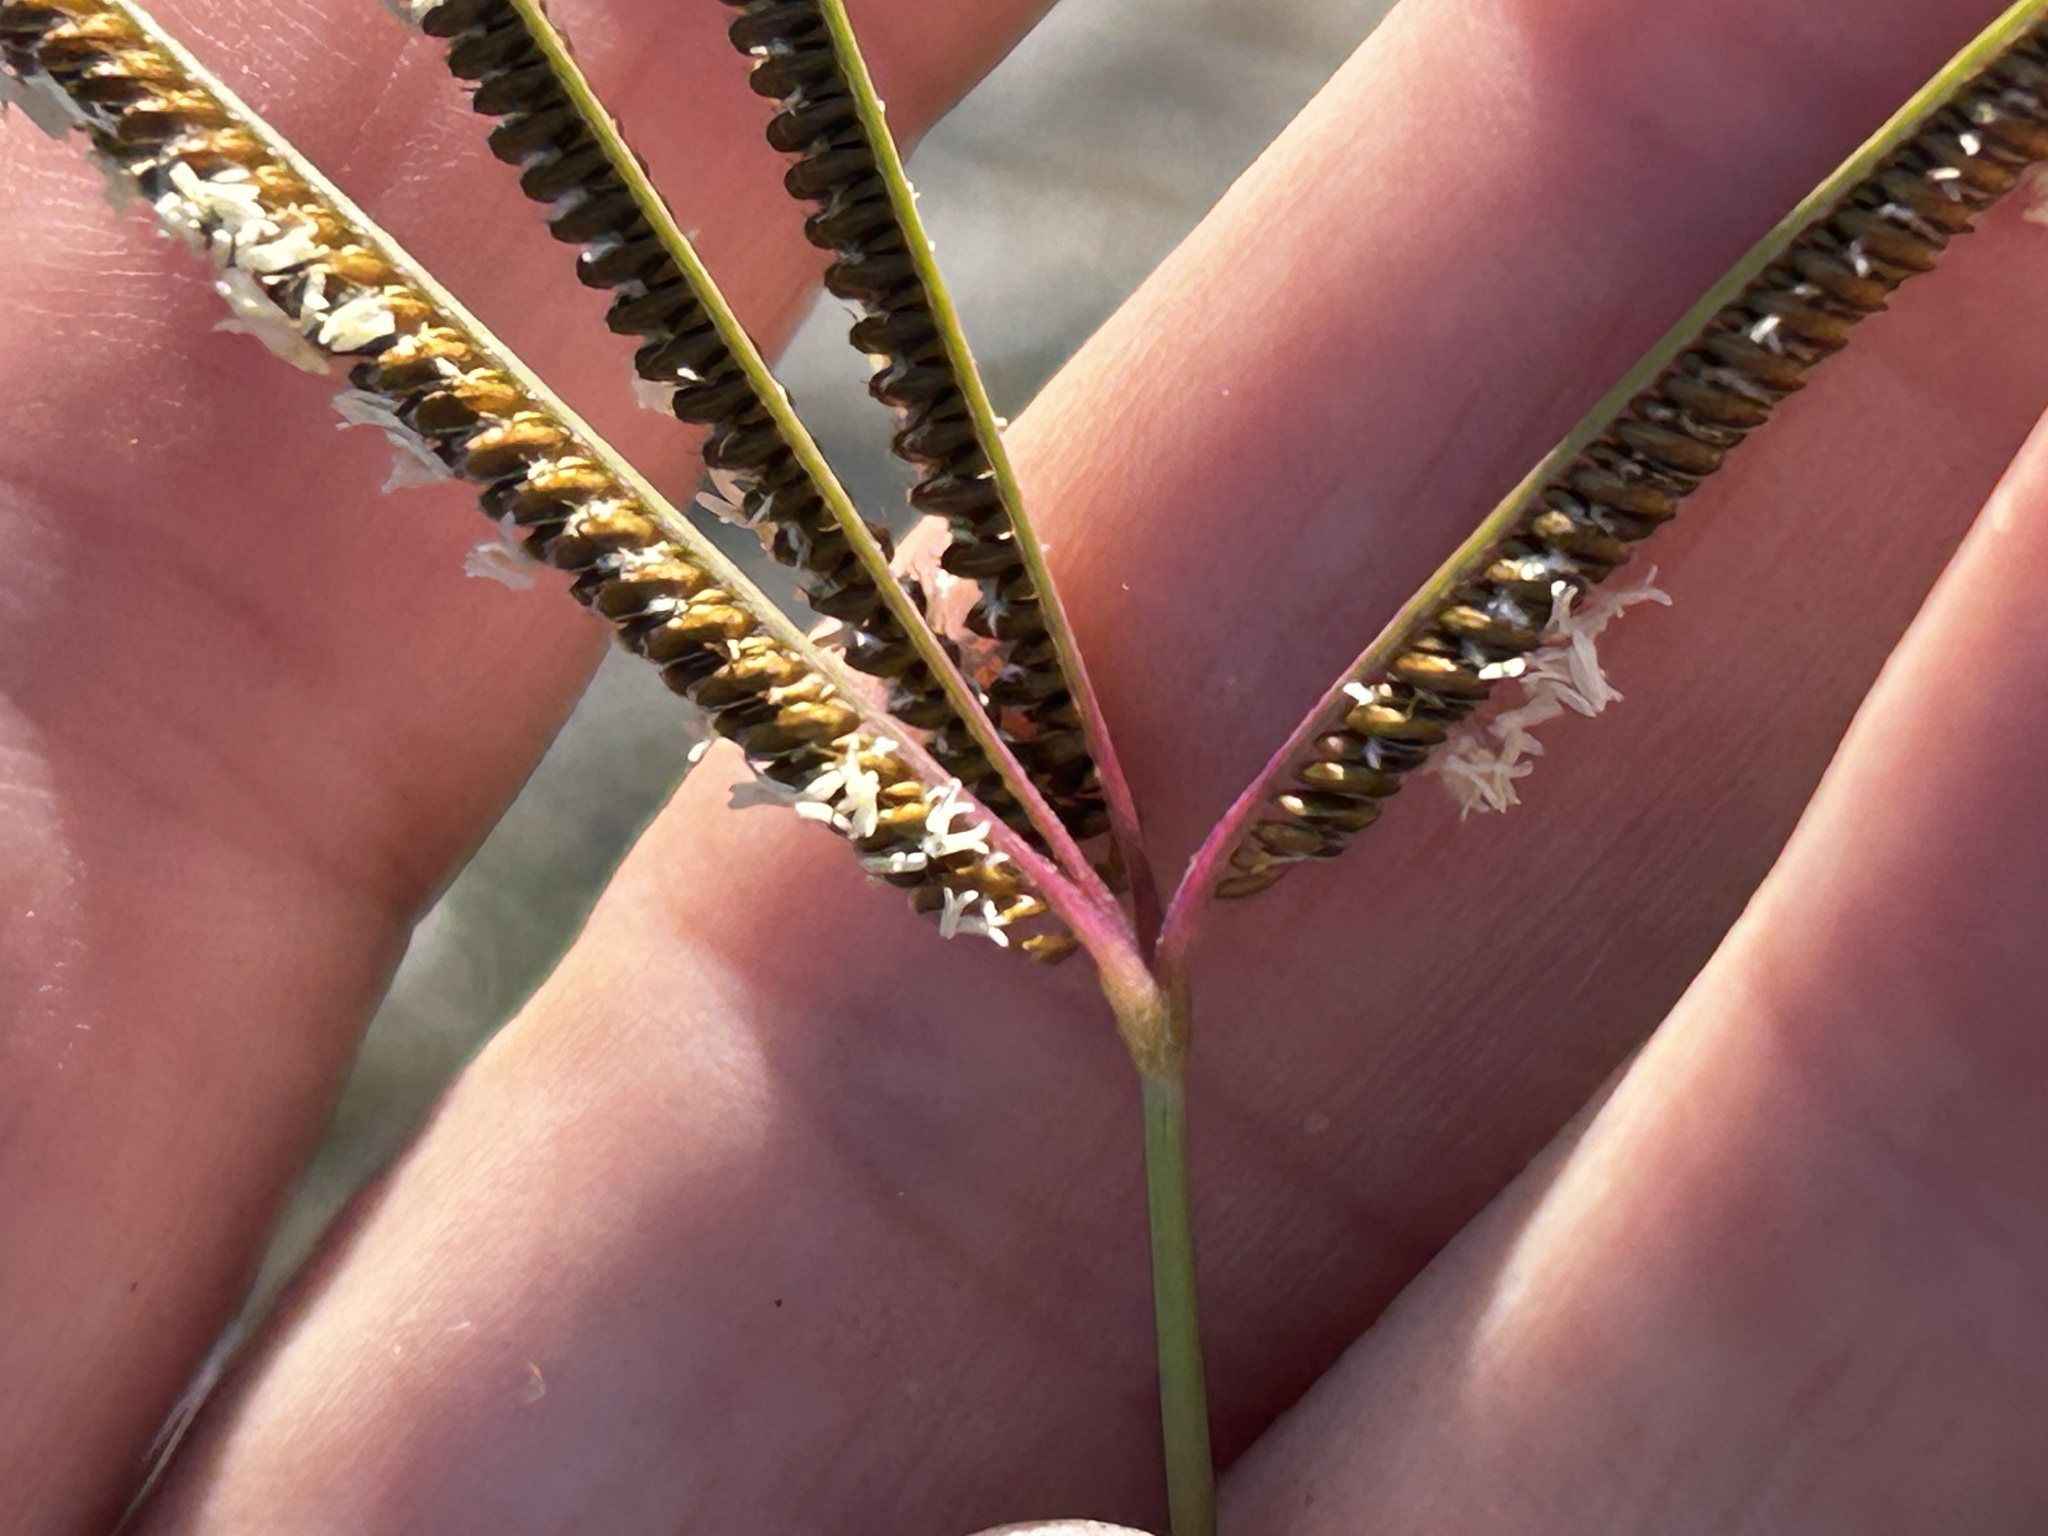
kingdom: Plantae
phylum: Tracheophyta
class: Liliopsida
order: Poales
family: Poaceae
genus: Eustachys
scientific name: Eustachys paspaloides
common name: Caribbean fingergrass
